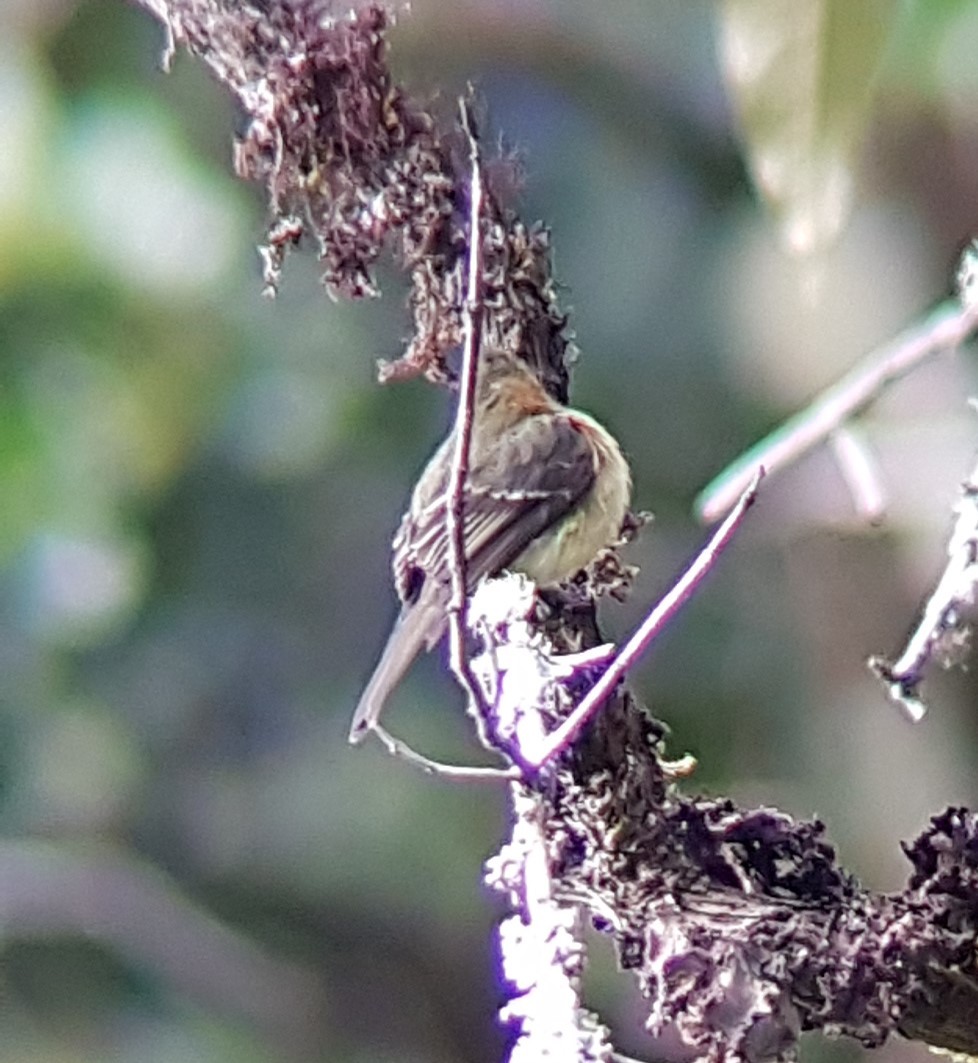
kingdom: Animalia
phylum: Chordata
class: Aves
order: Passeriformes
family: Tyrannidae
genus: Mitrephanes
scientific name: Mitrephanes phaeocercus
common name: Northern tufted flycatcher
